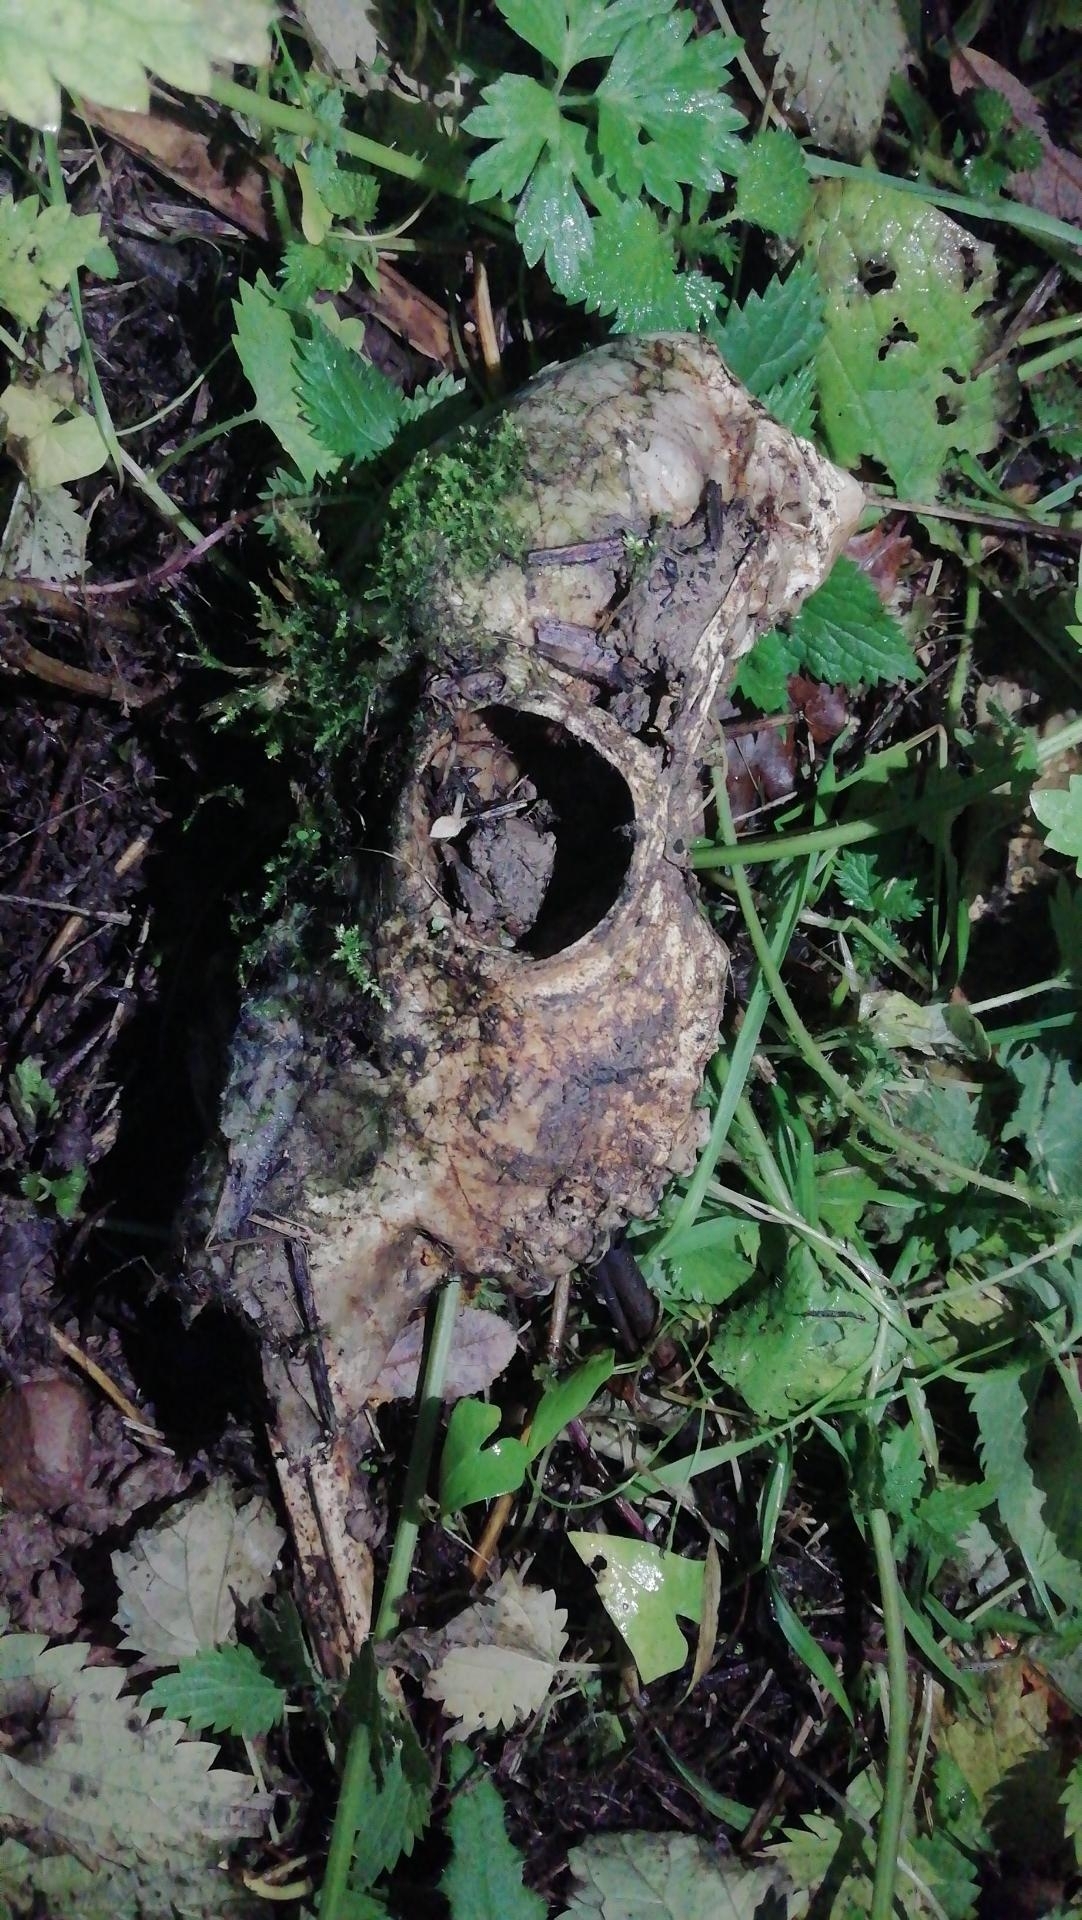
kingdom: Animalia
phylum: Chordata
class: Mammalia
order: Artiodactyla
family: Cervidae
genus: Capreolus
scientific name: Capreolus capreolus
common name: Western roe deer
